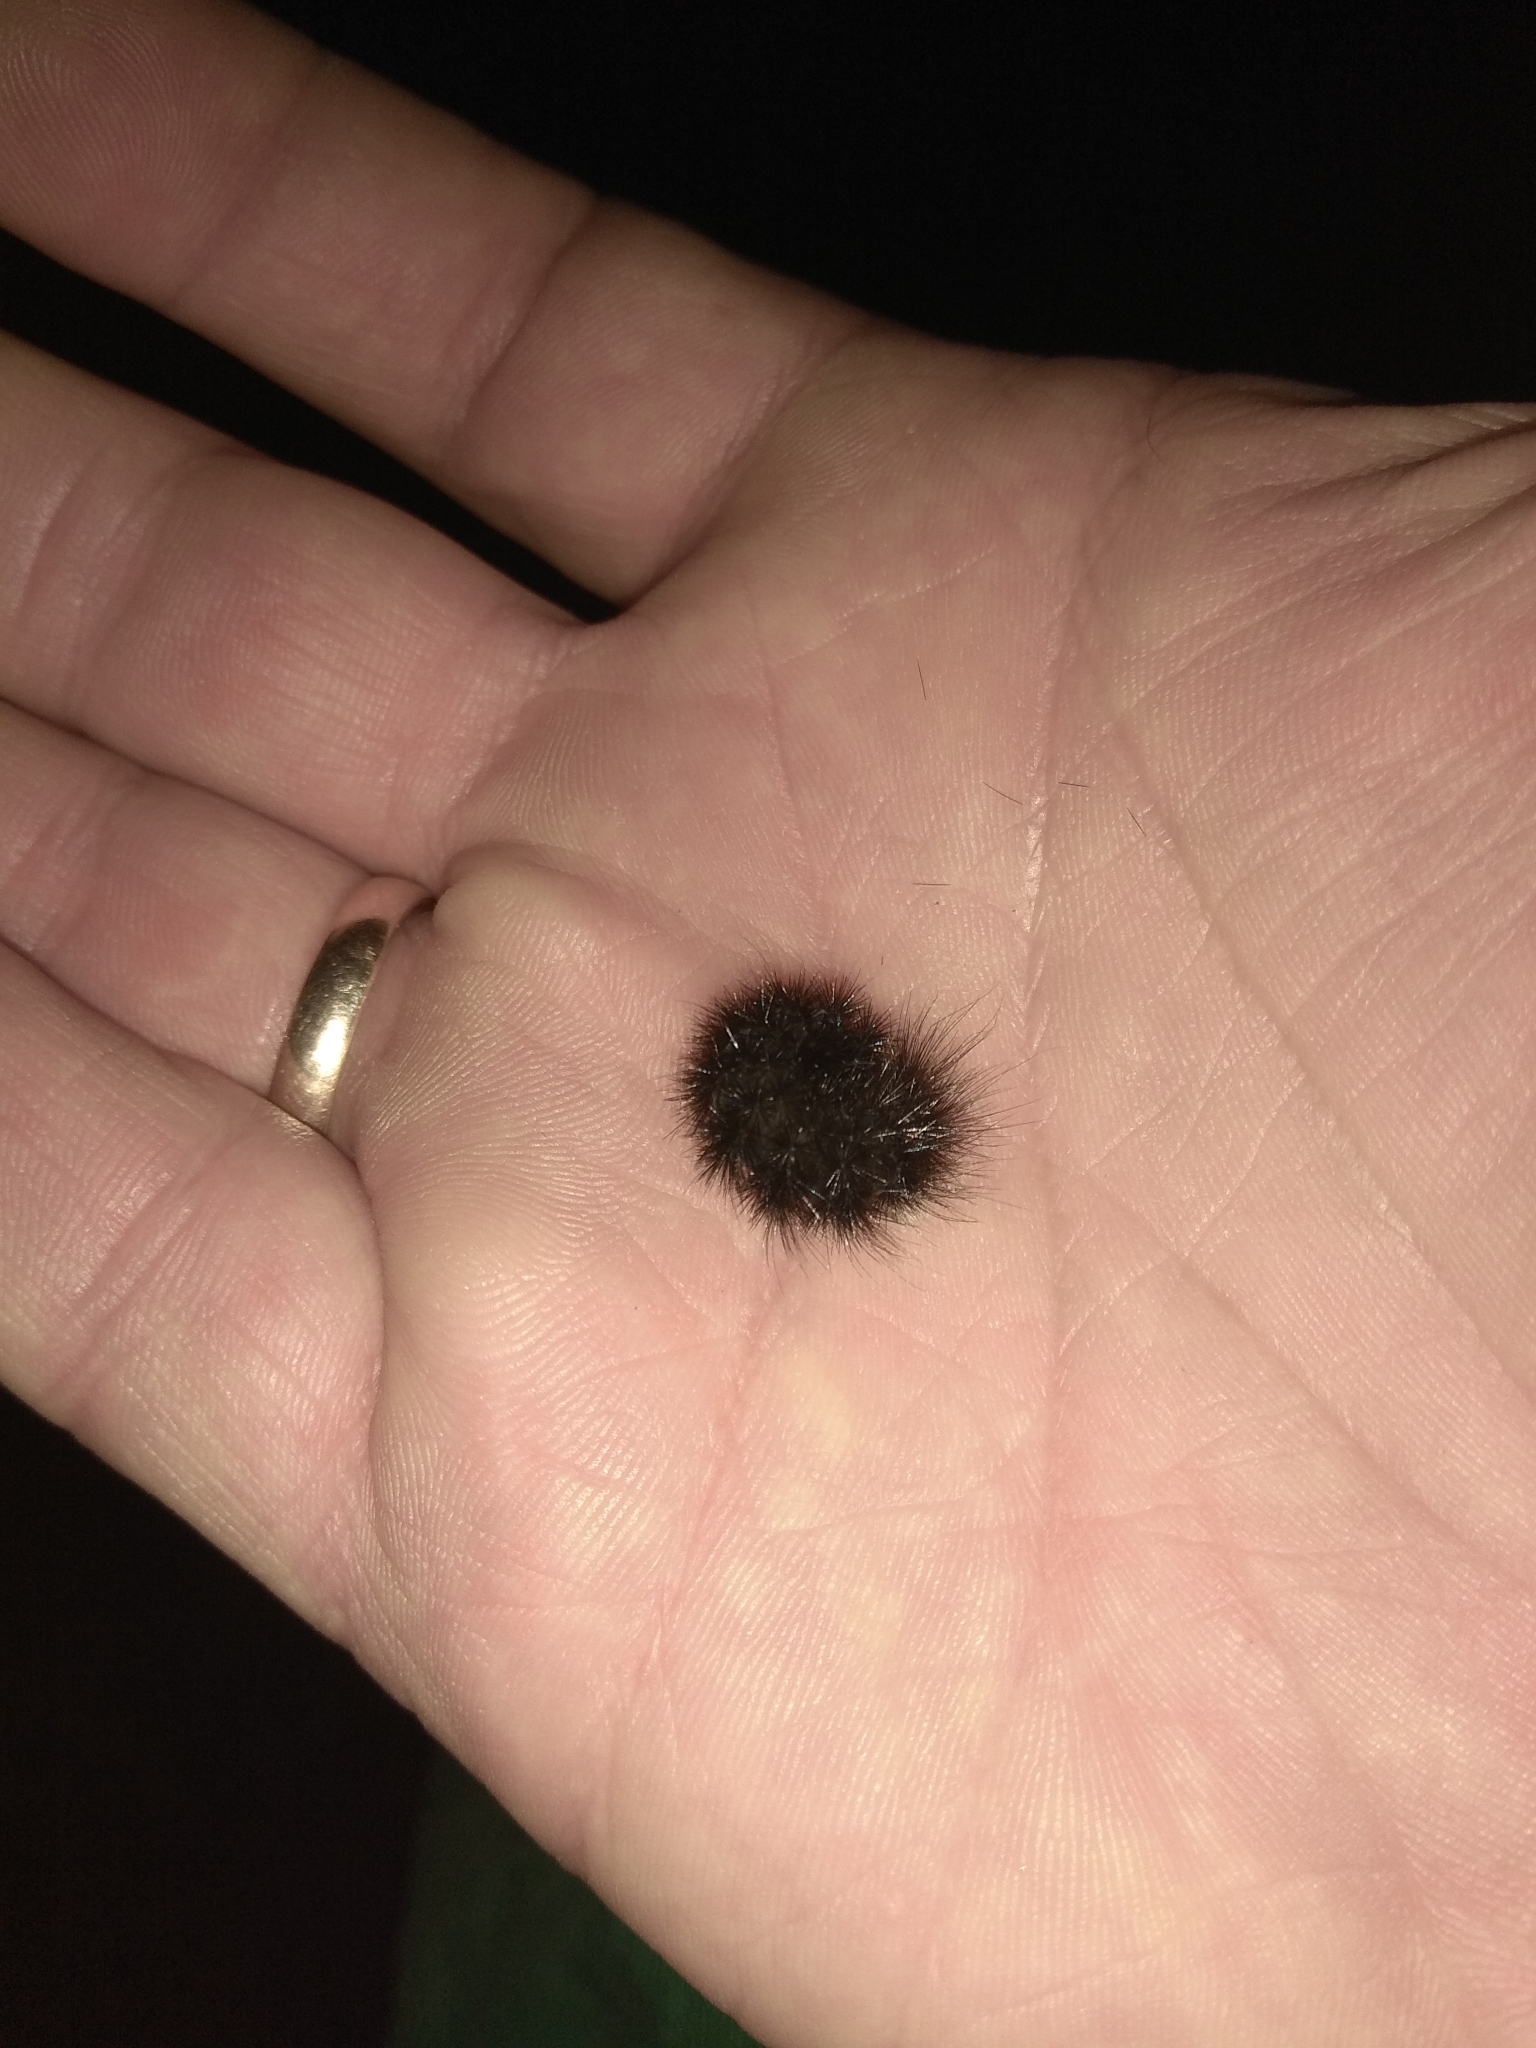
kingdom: Animalia
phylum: Arthropoda
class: Insecta
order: Lepidoptera
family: Erebidae
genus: Phragmatobia
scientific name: Phragmatobia fuliginosa
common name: Ruby tiger
